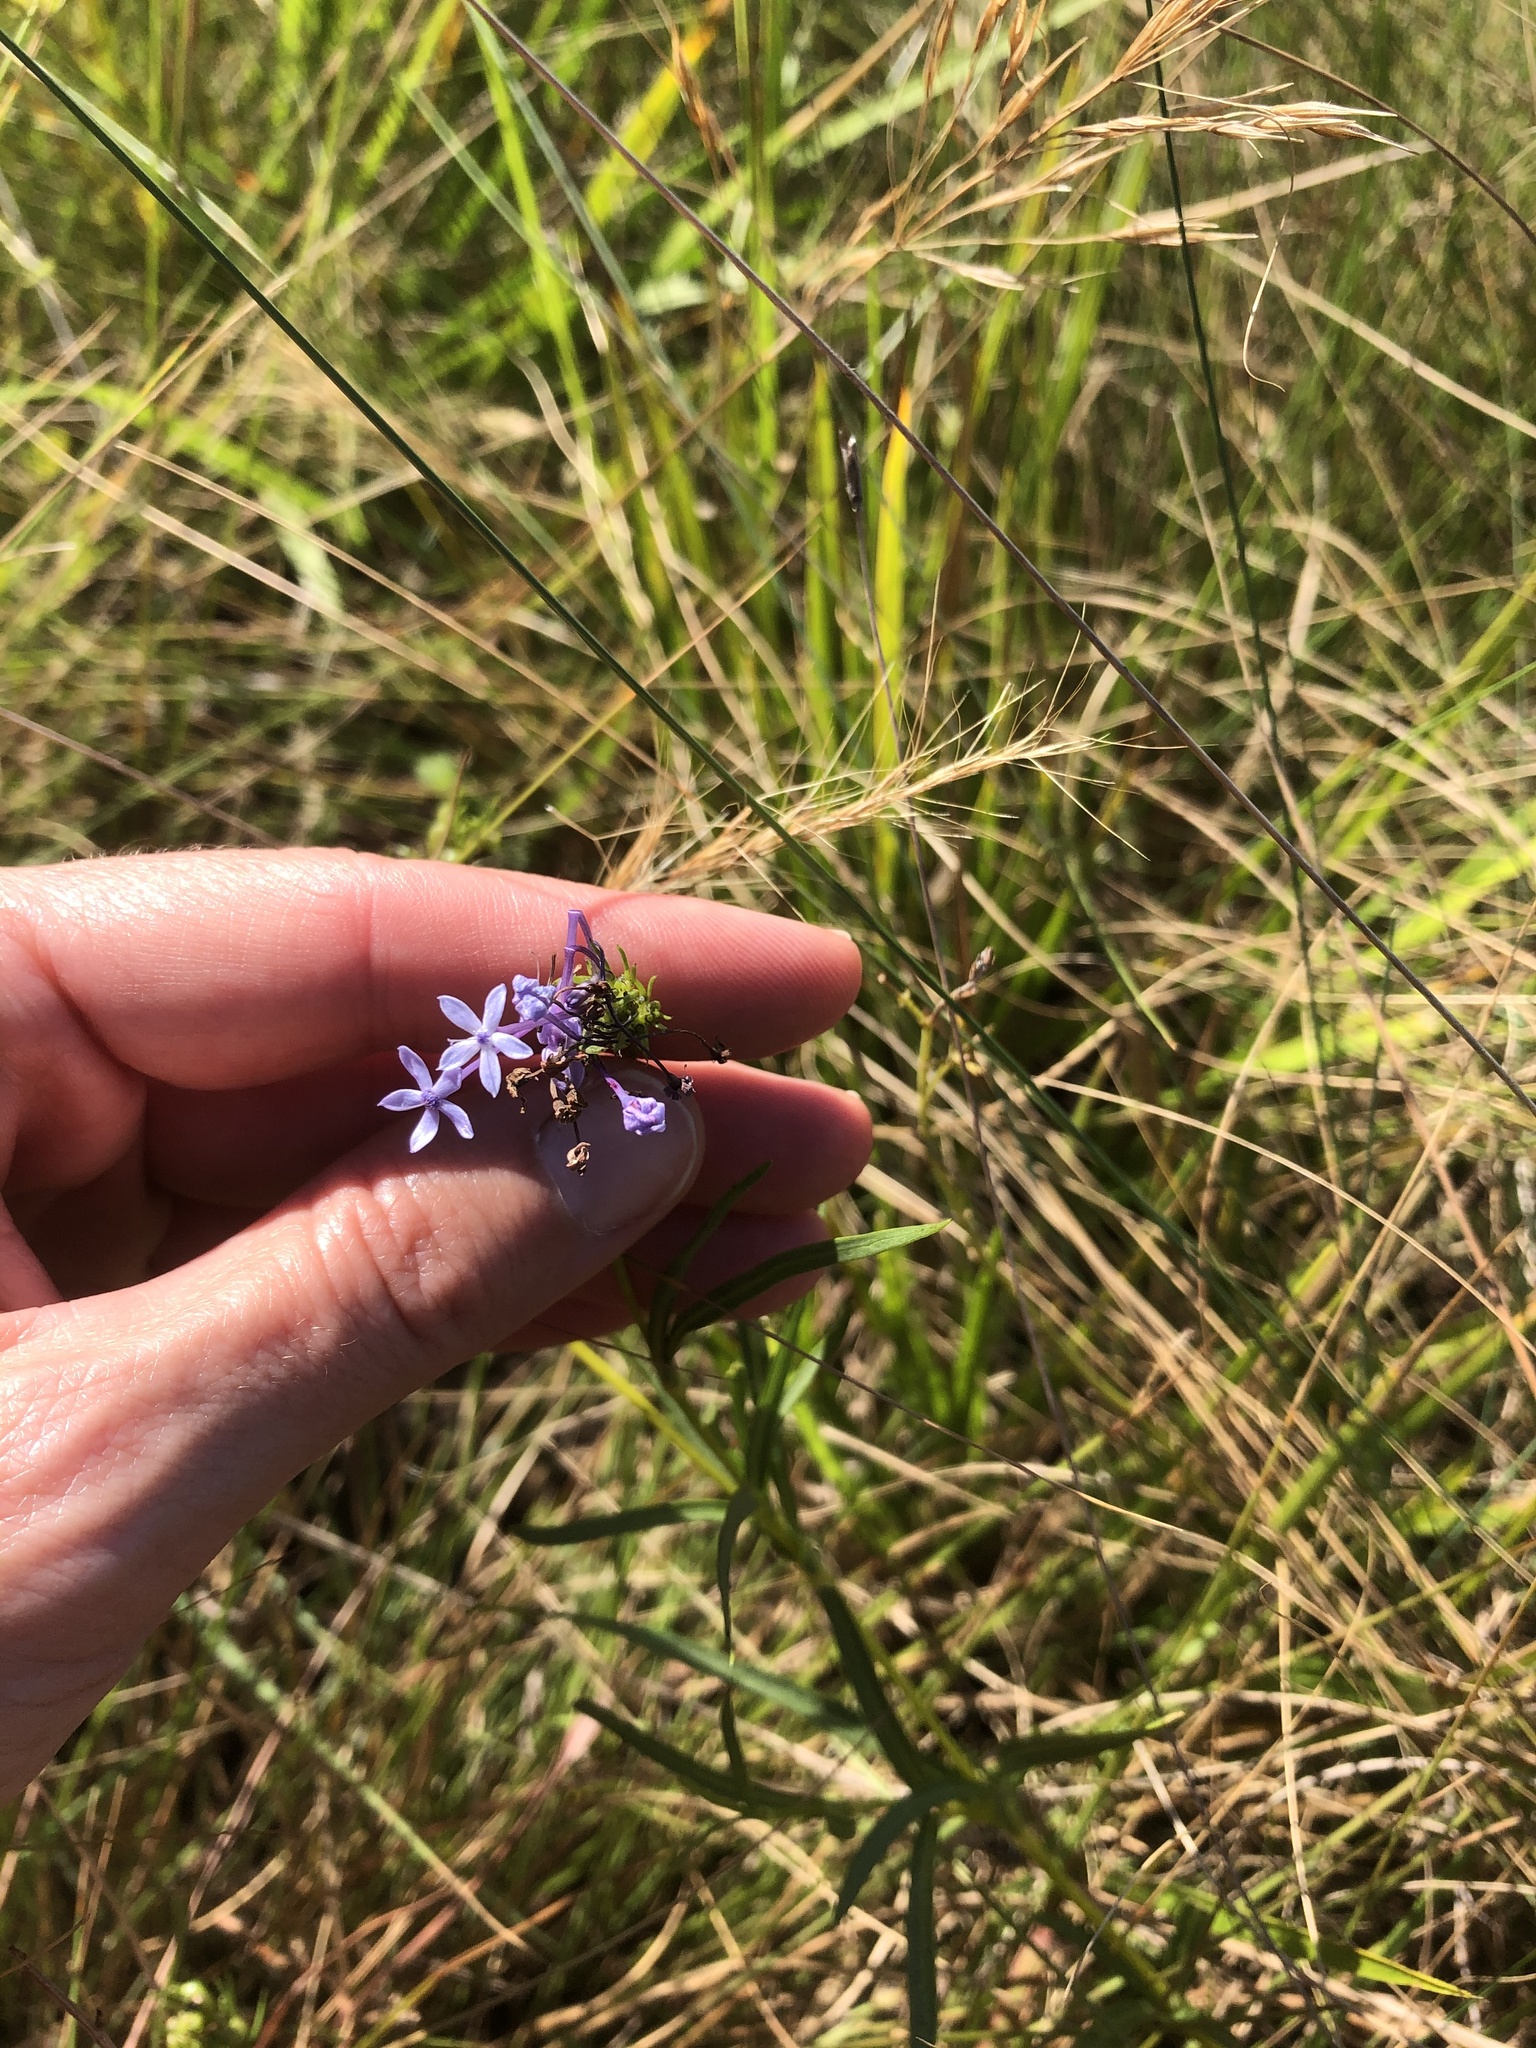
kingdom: Plantae
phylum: Tracheophyta
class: Magnoliopsida
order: Gentianales
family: Rubiaceae
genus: Pentanisia
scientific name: Pentanisia angustifolia
